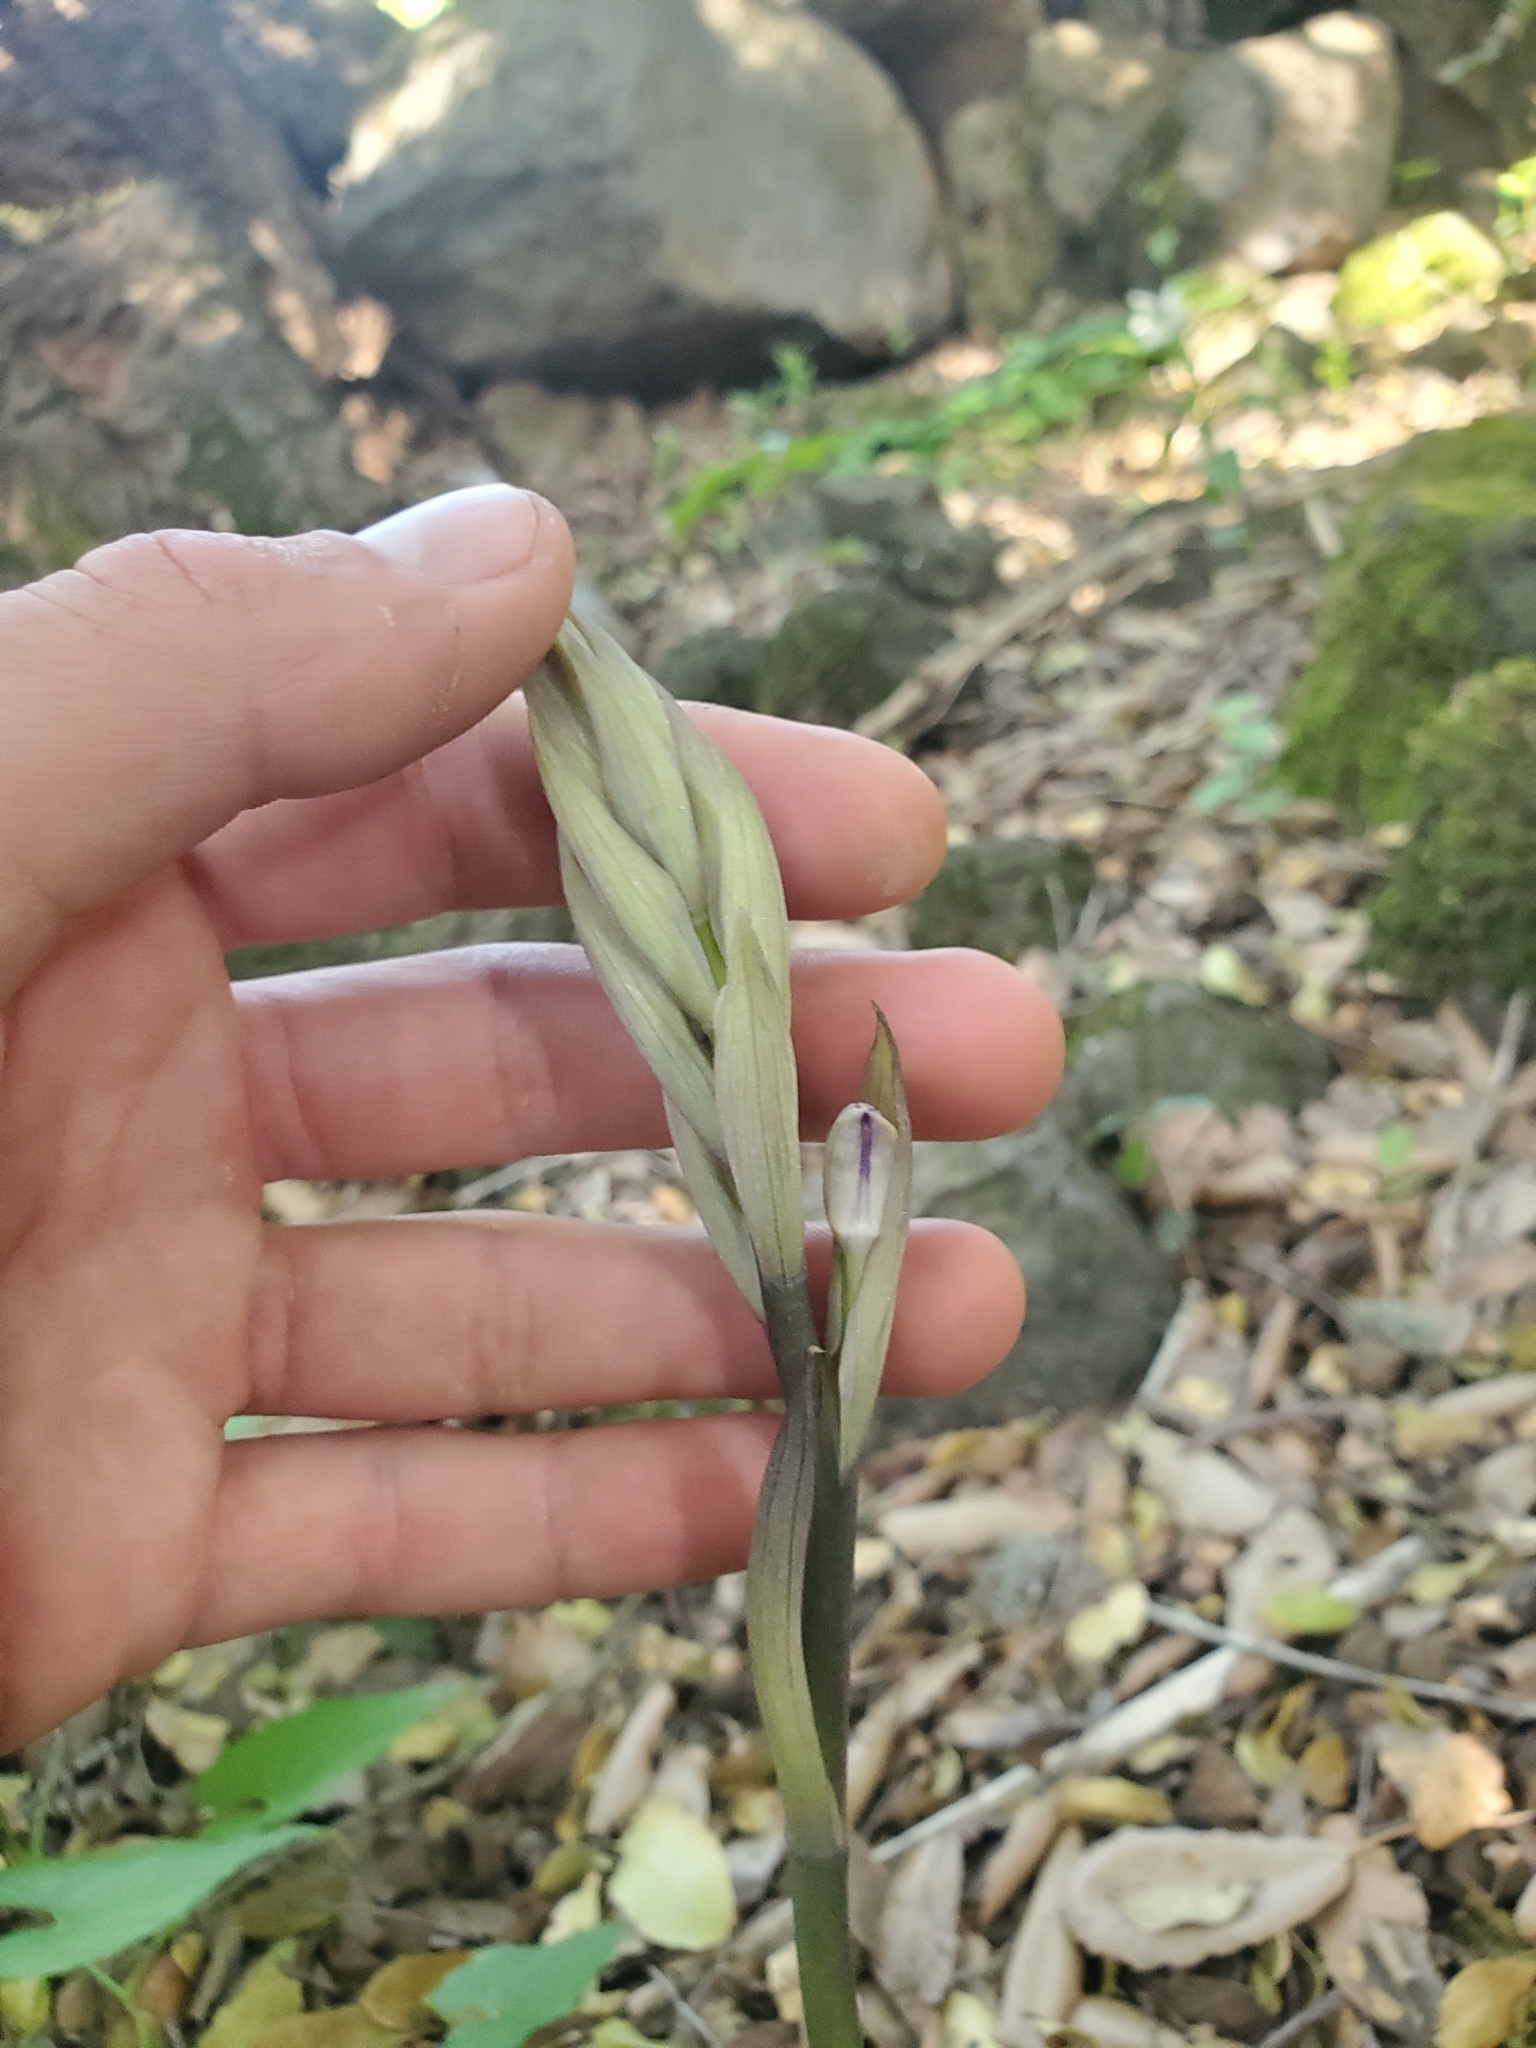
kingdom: Plantae
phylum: Tracheophyta
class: Liliopsida
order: Asparagales
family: Orchidaceae
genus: Limodorum
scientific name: Limodorum abortivum
